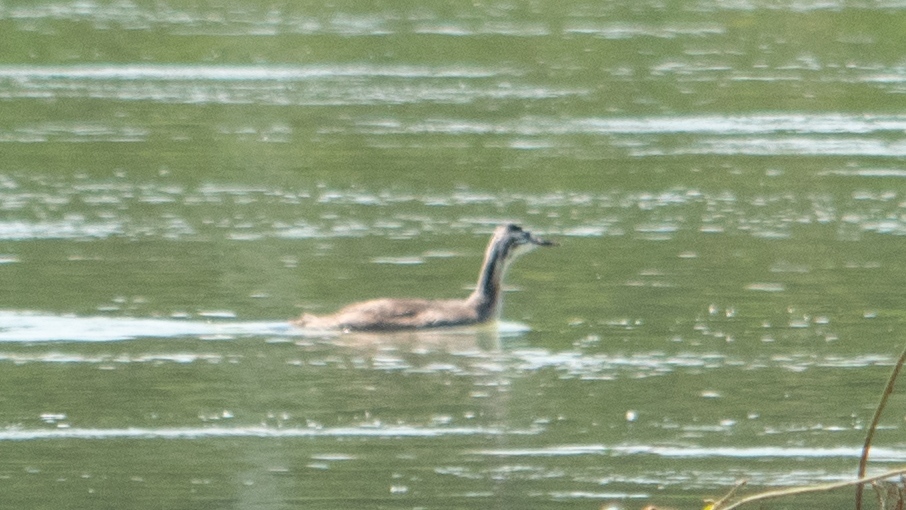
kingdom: Animalia
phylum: Chordata
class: Aves
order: Podicipediformes
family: Podicipedidae
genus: Podiceps
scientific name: Podiceps cristatus
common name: Great crested grebe
